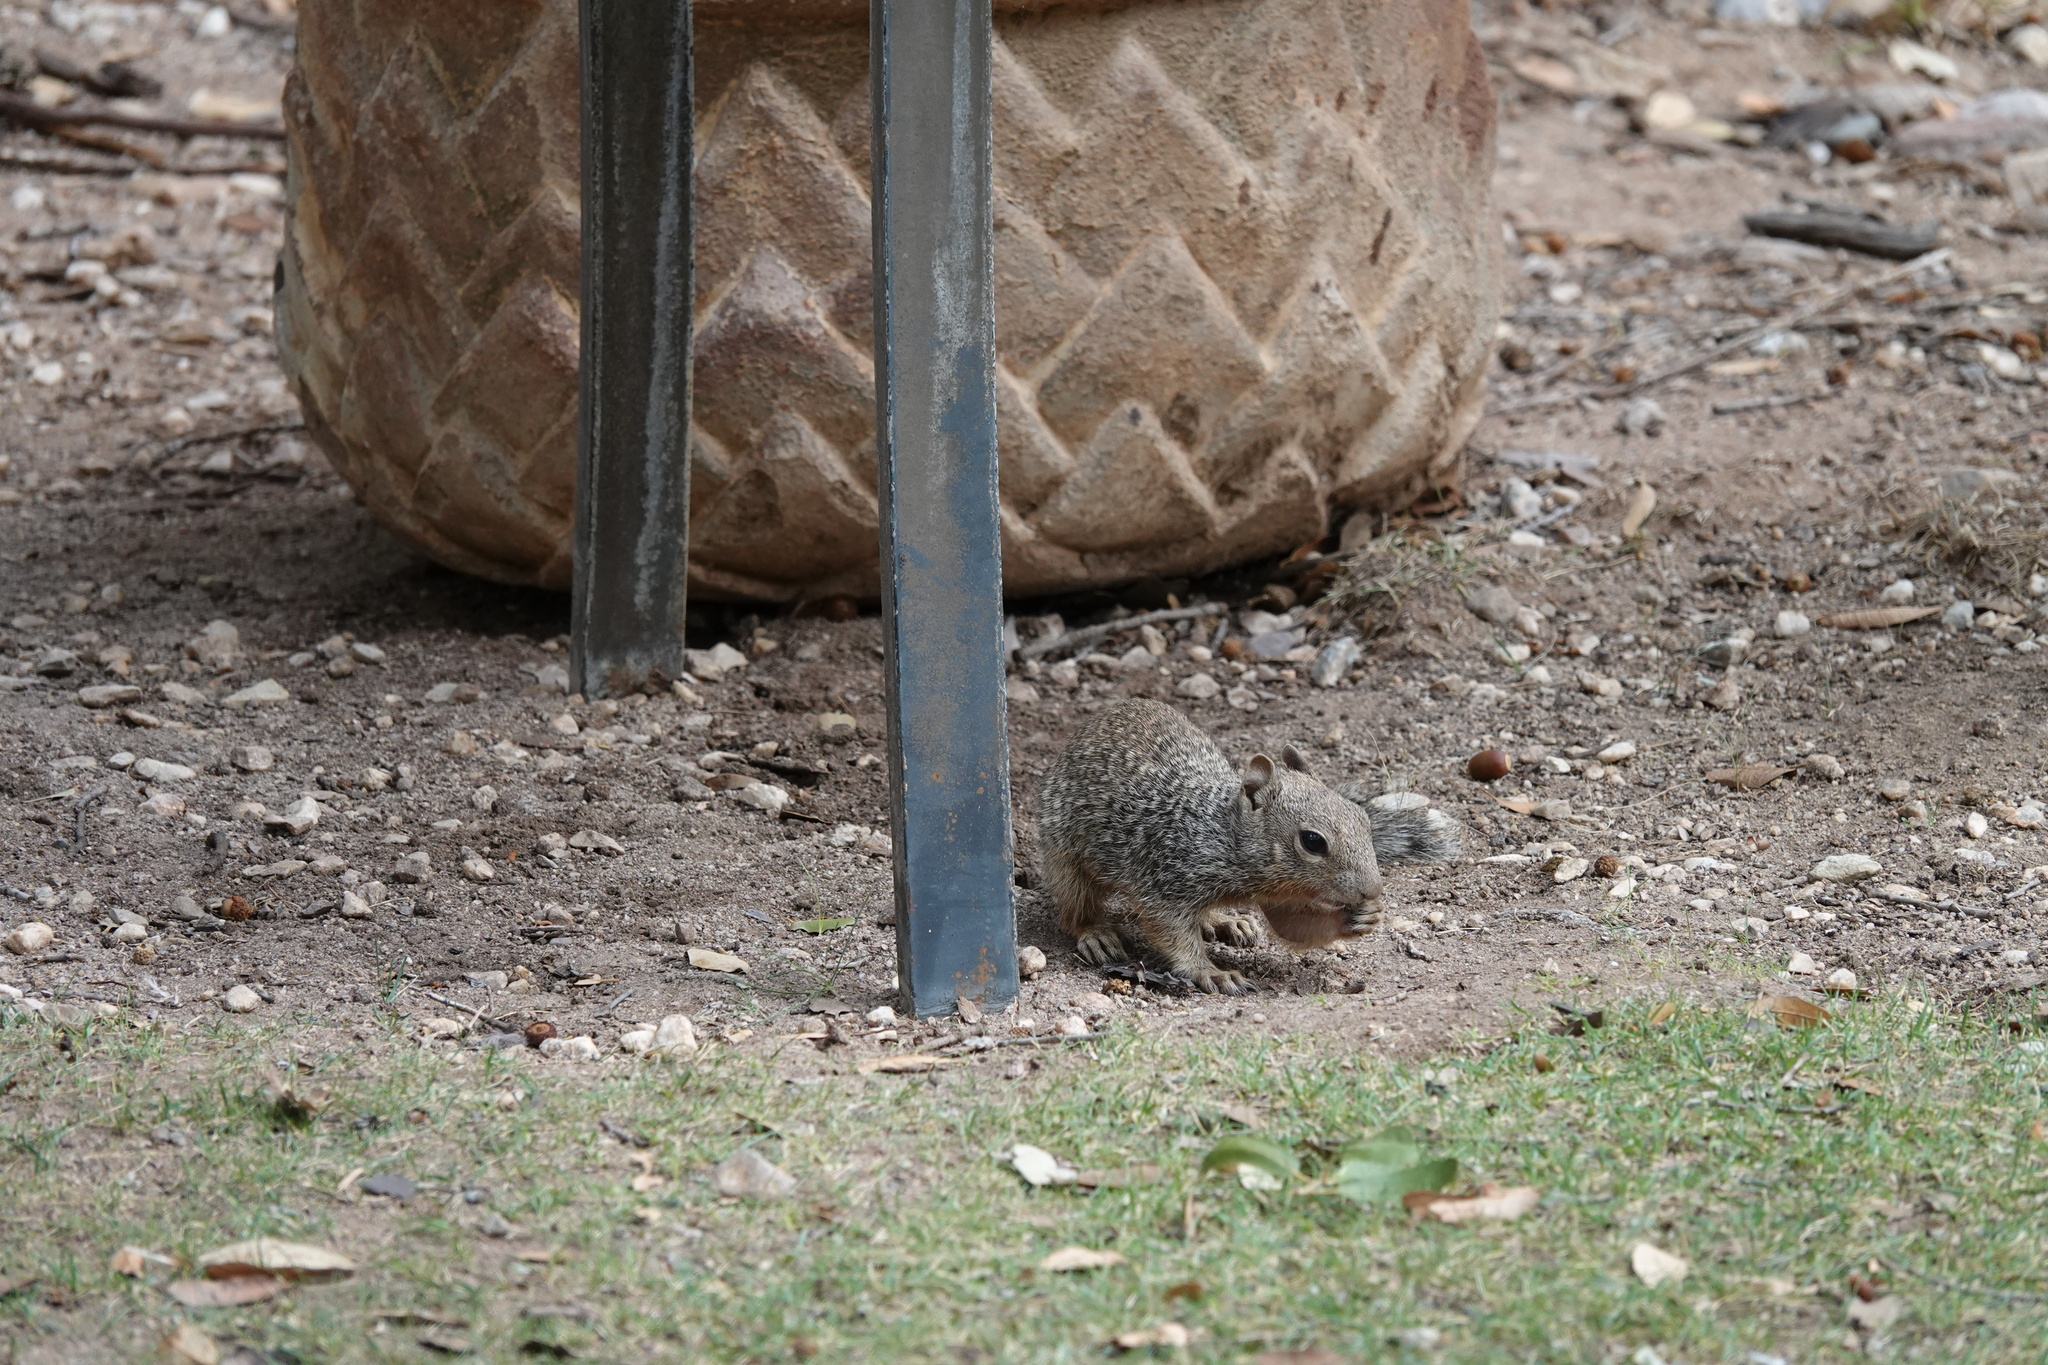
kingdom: Animalia
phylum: Chordata
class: Mammalia
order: Rodentia
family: Sciuridae
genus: Otospermophilus
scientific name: Otospermophilus variegatus
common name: Rock squirrel
